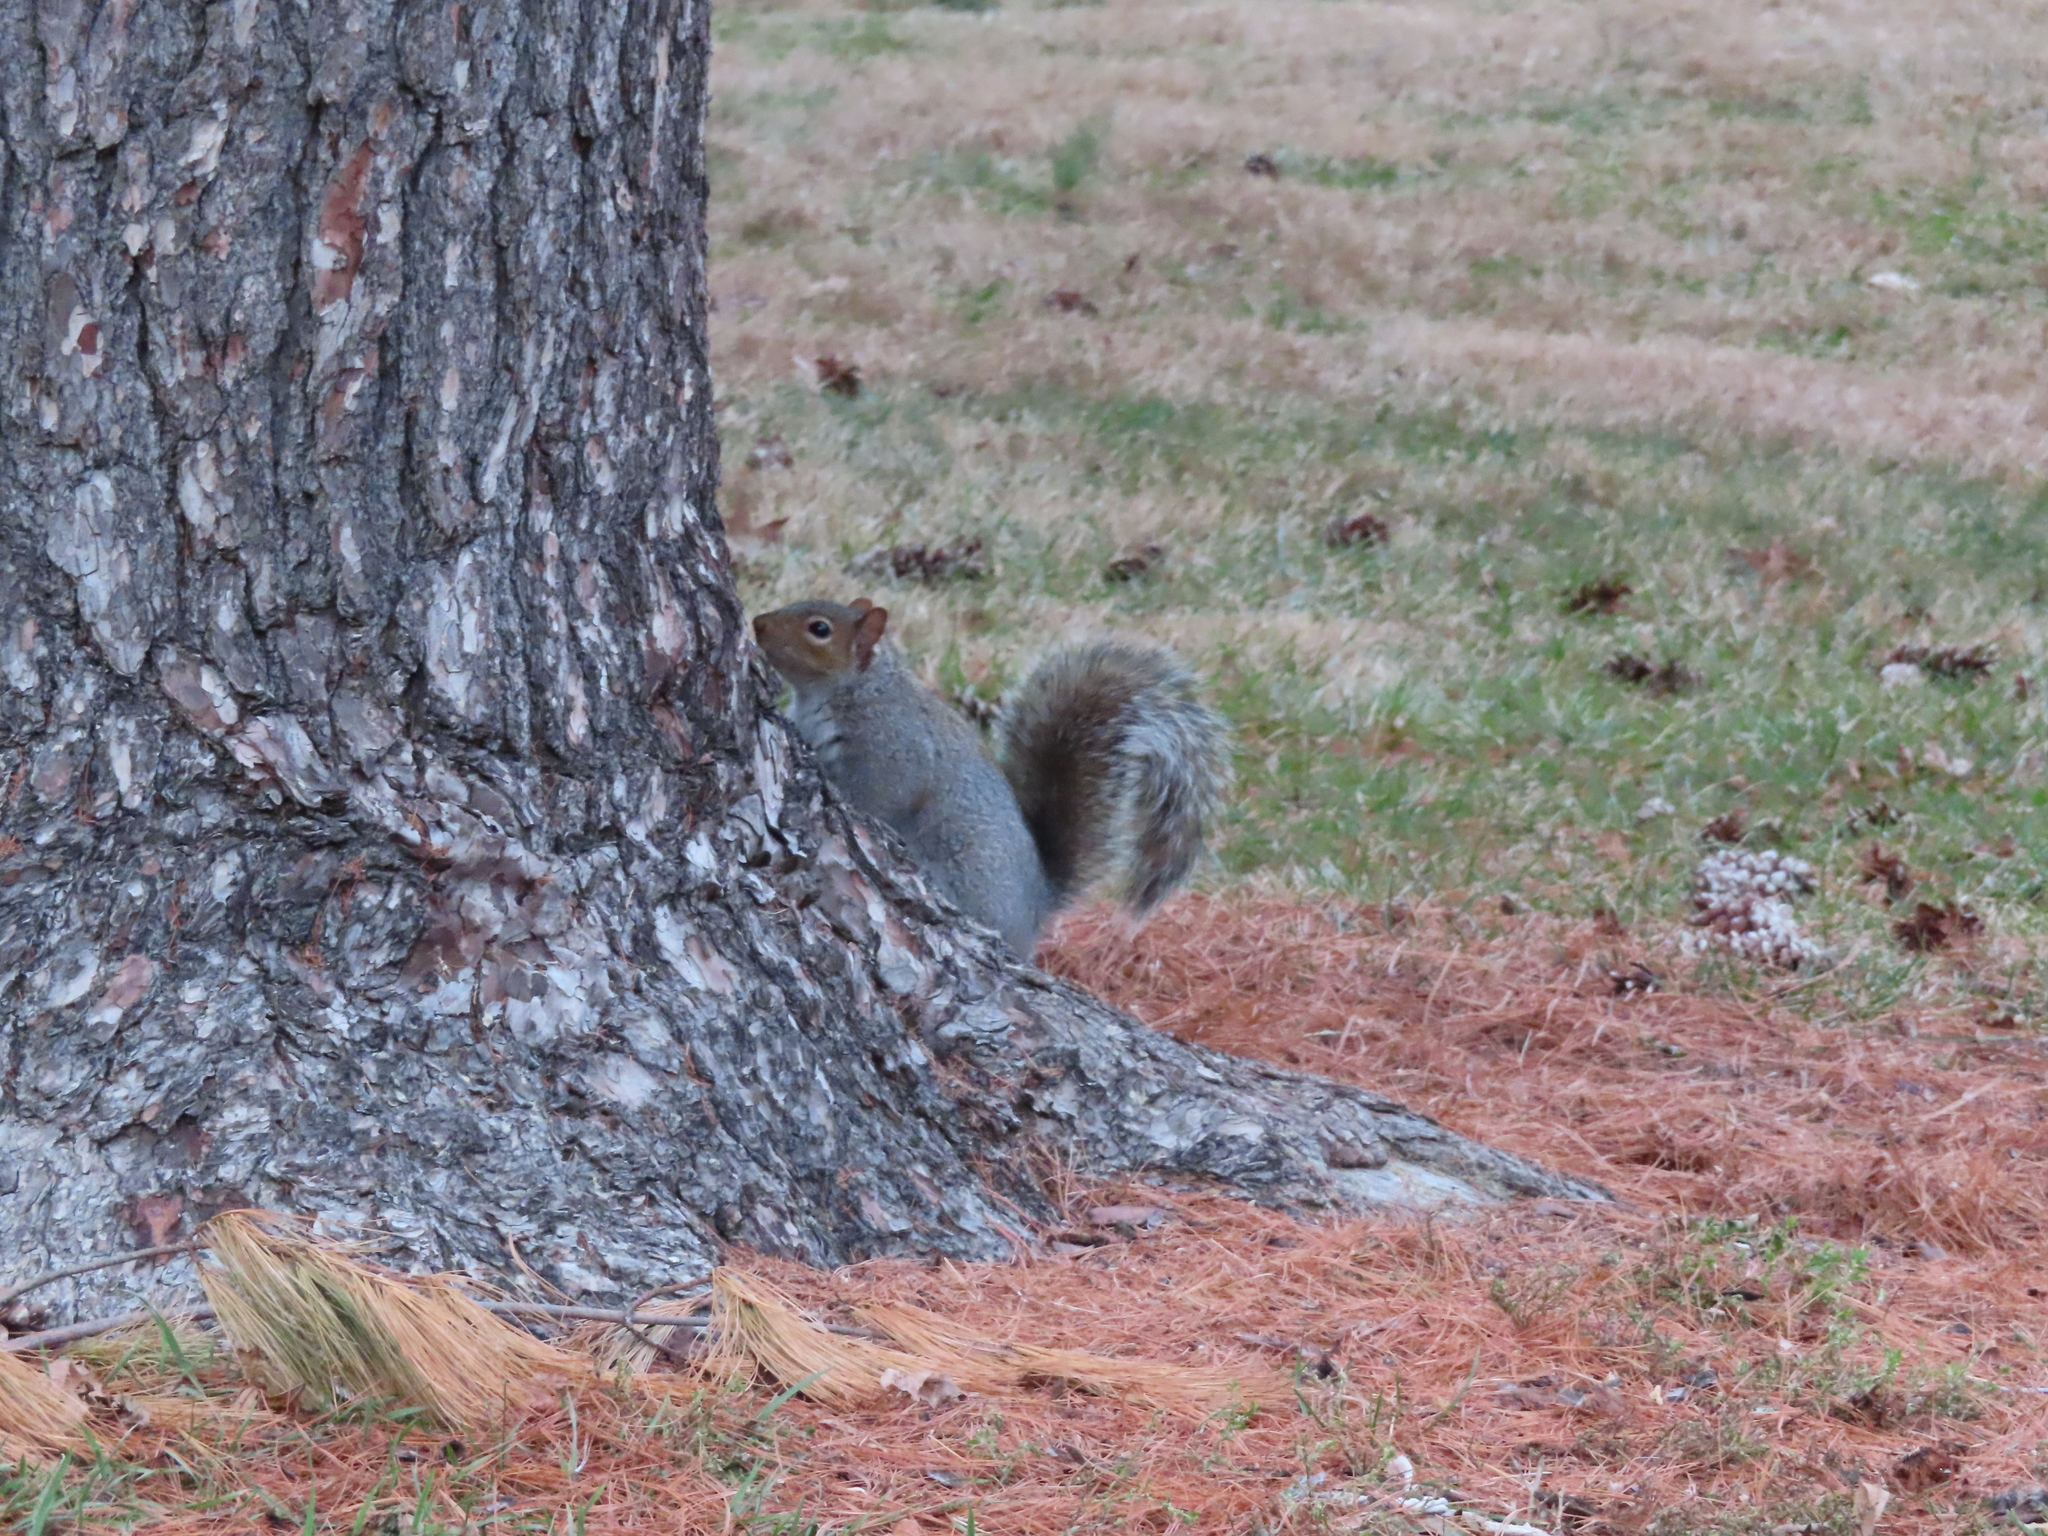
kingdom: Animalia
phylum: Chordata
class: Mammalia
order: Rodentia
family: Sciuridae
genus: Sciurus
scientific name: Sciurus carolinensis
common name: Eastern gray squirrel
